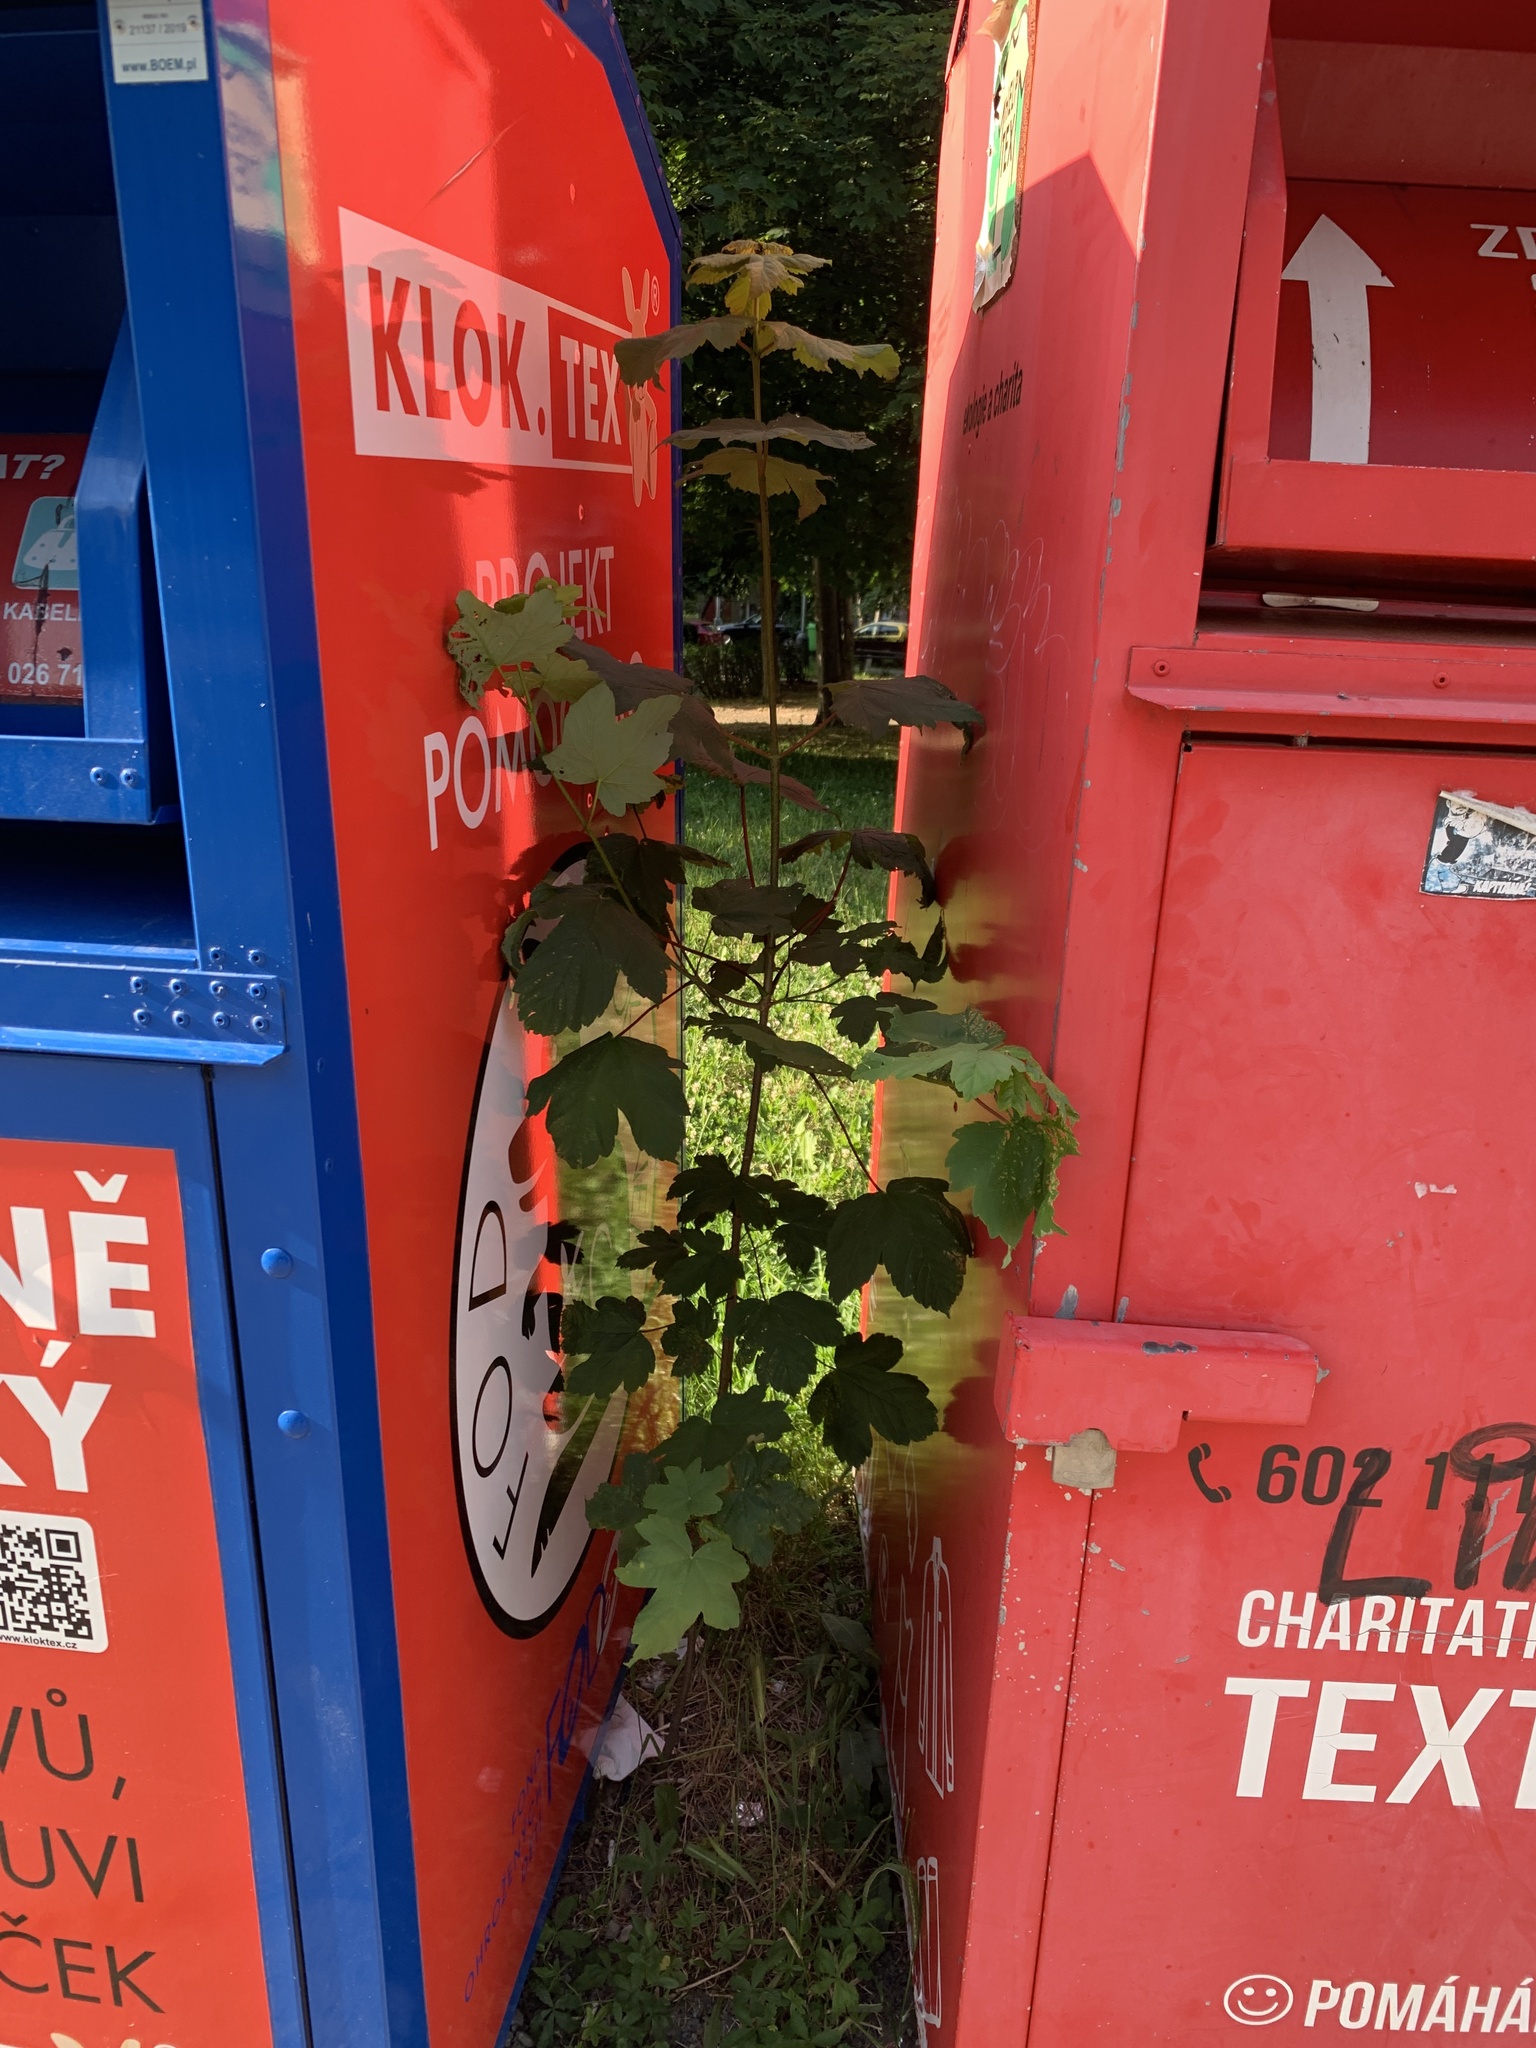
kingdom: Plantae
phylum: Tracheophyta
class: Magnoliopsida
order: Sapindales
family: Sapindaceae
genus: Acer
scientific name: Acer pseudoplatanus
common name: Sycamore
